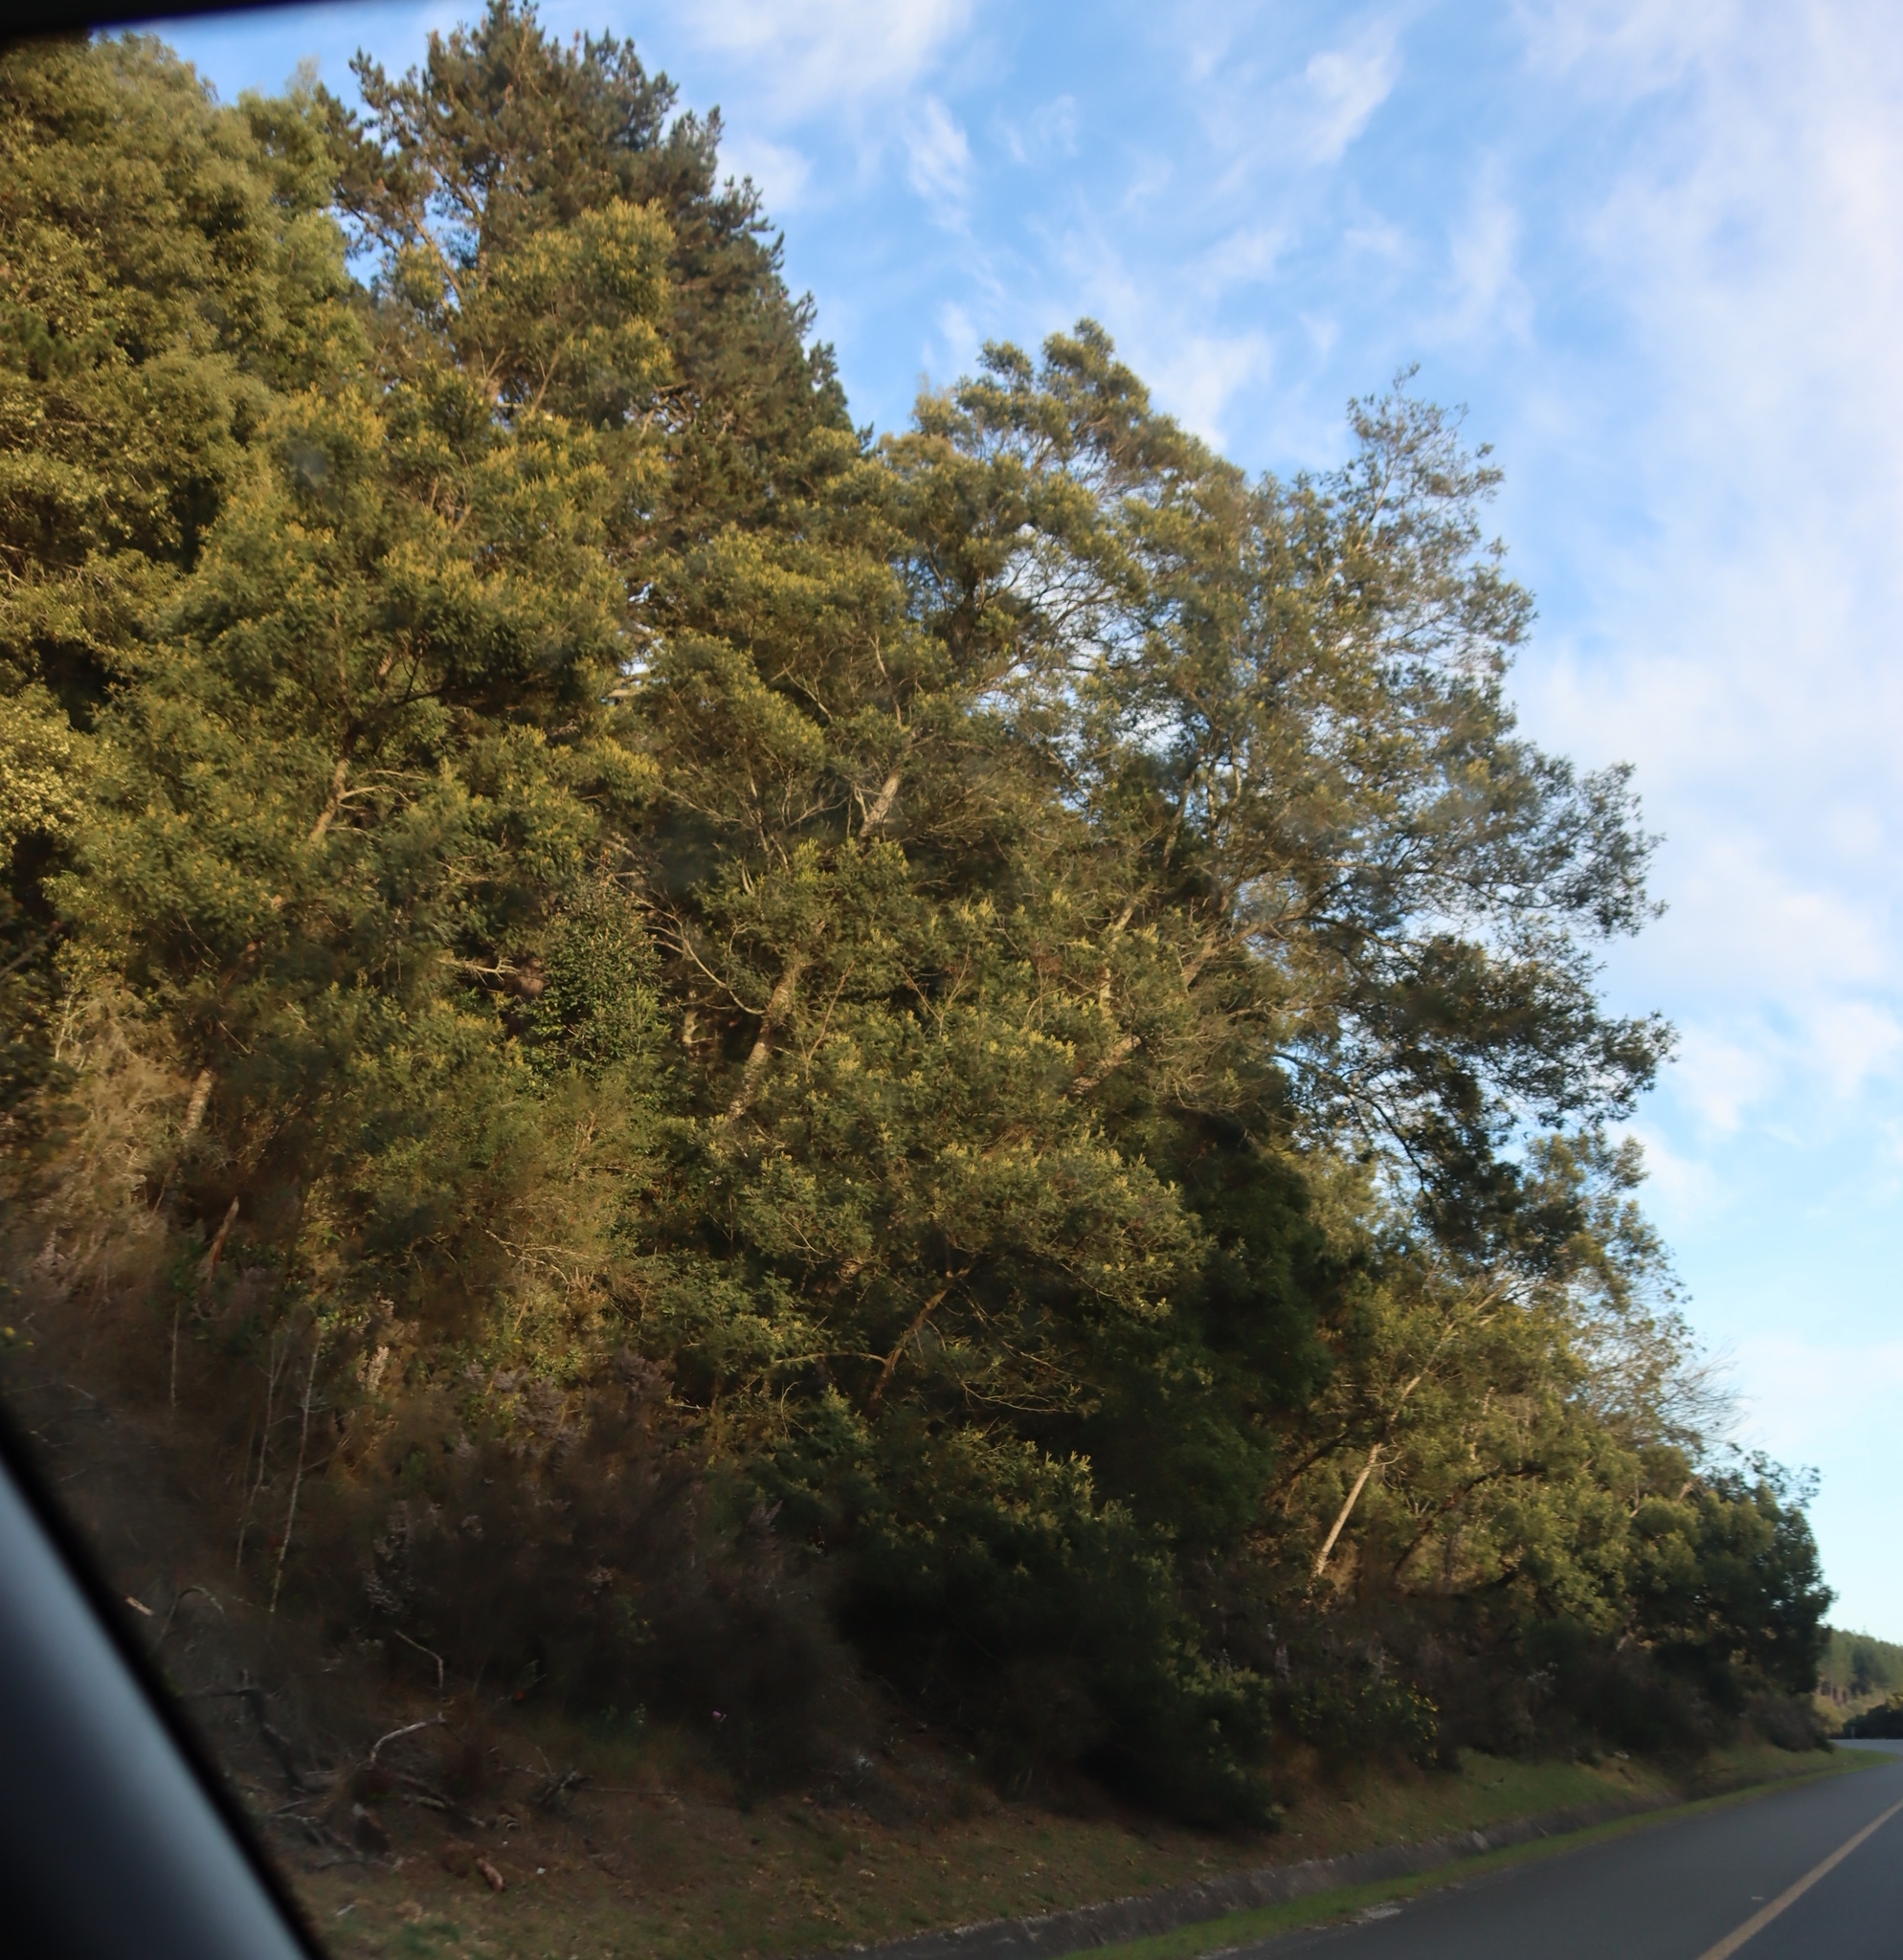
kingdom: Plantae
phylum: Tracheophyta
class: Magnoliopsida
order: Fabales
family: Fabaceae
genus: Acacia
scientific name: Acacia mearnsii
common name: Black wattle
